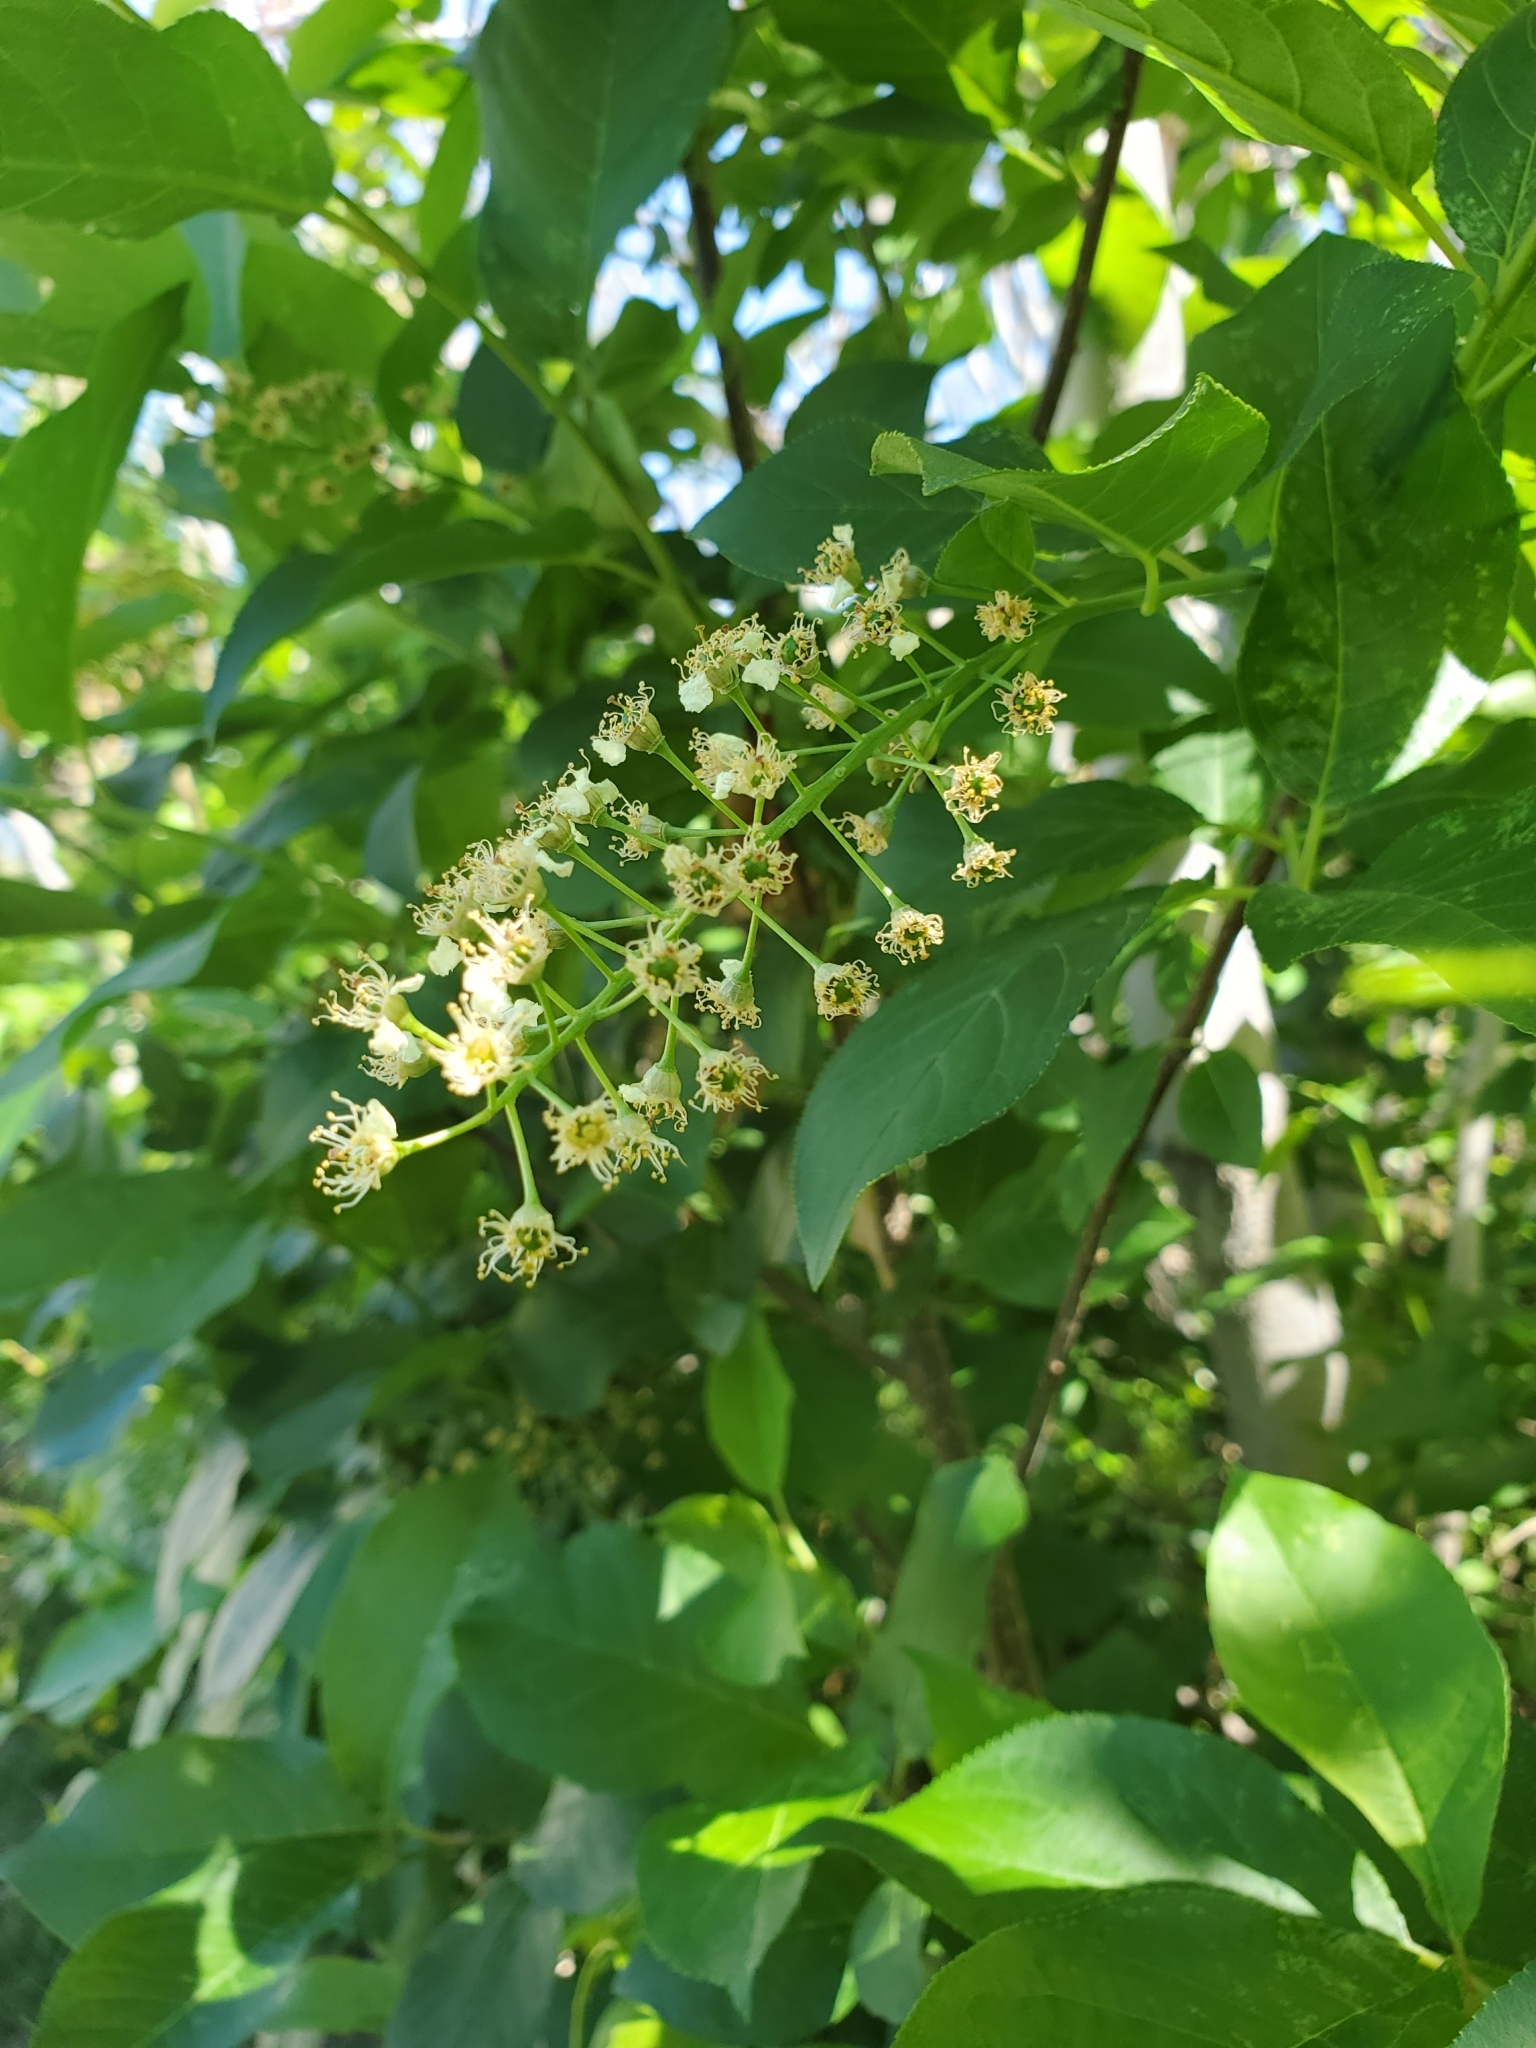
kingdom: Plantae
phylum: Tracheophyta
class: Magnoliopsida
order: Rosales
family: Rosaceae
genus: Prunus
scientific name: Prunus virginiana
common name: Chokecherry
